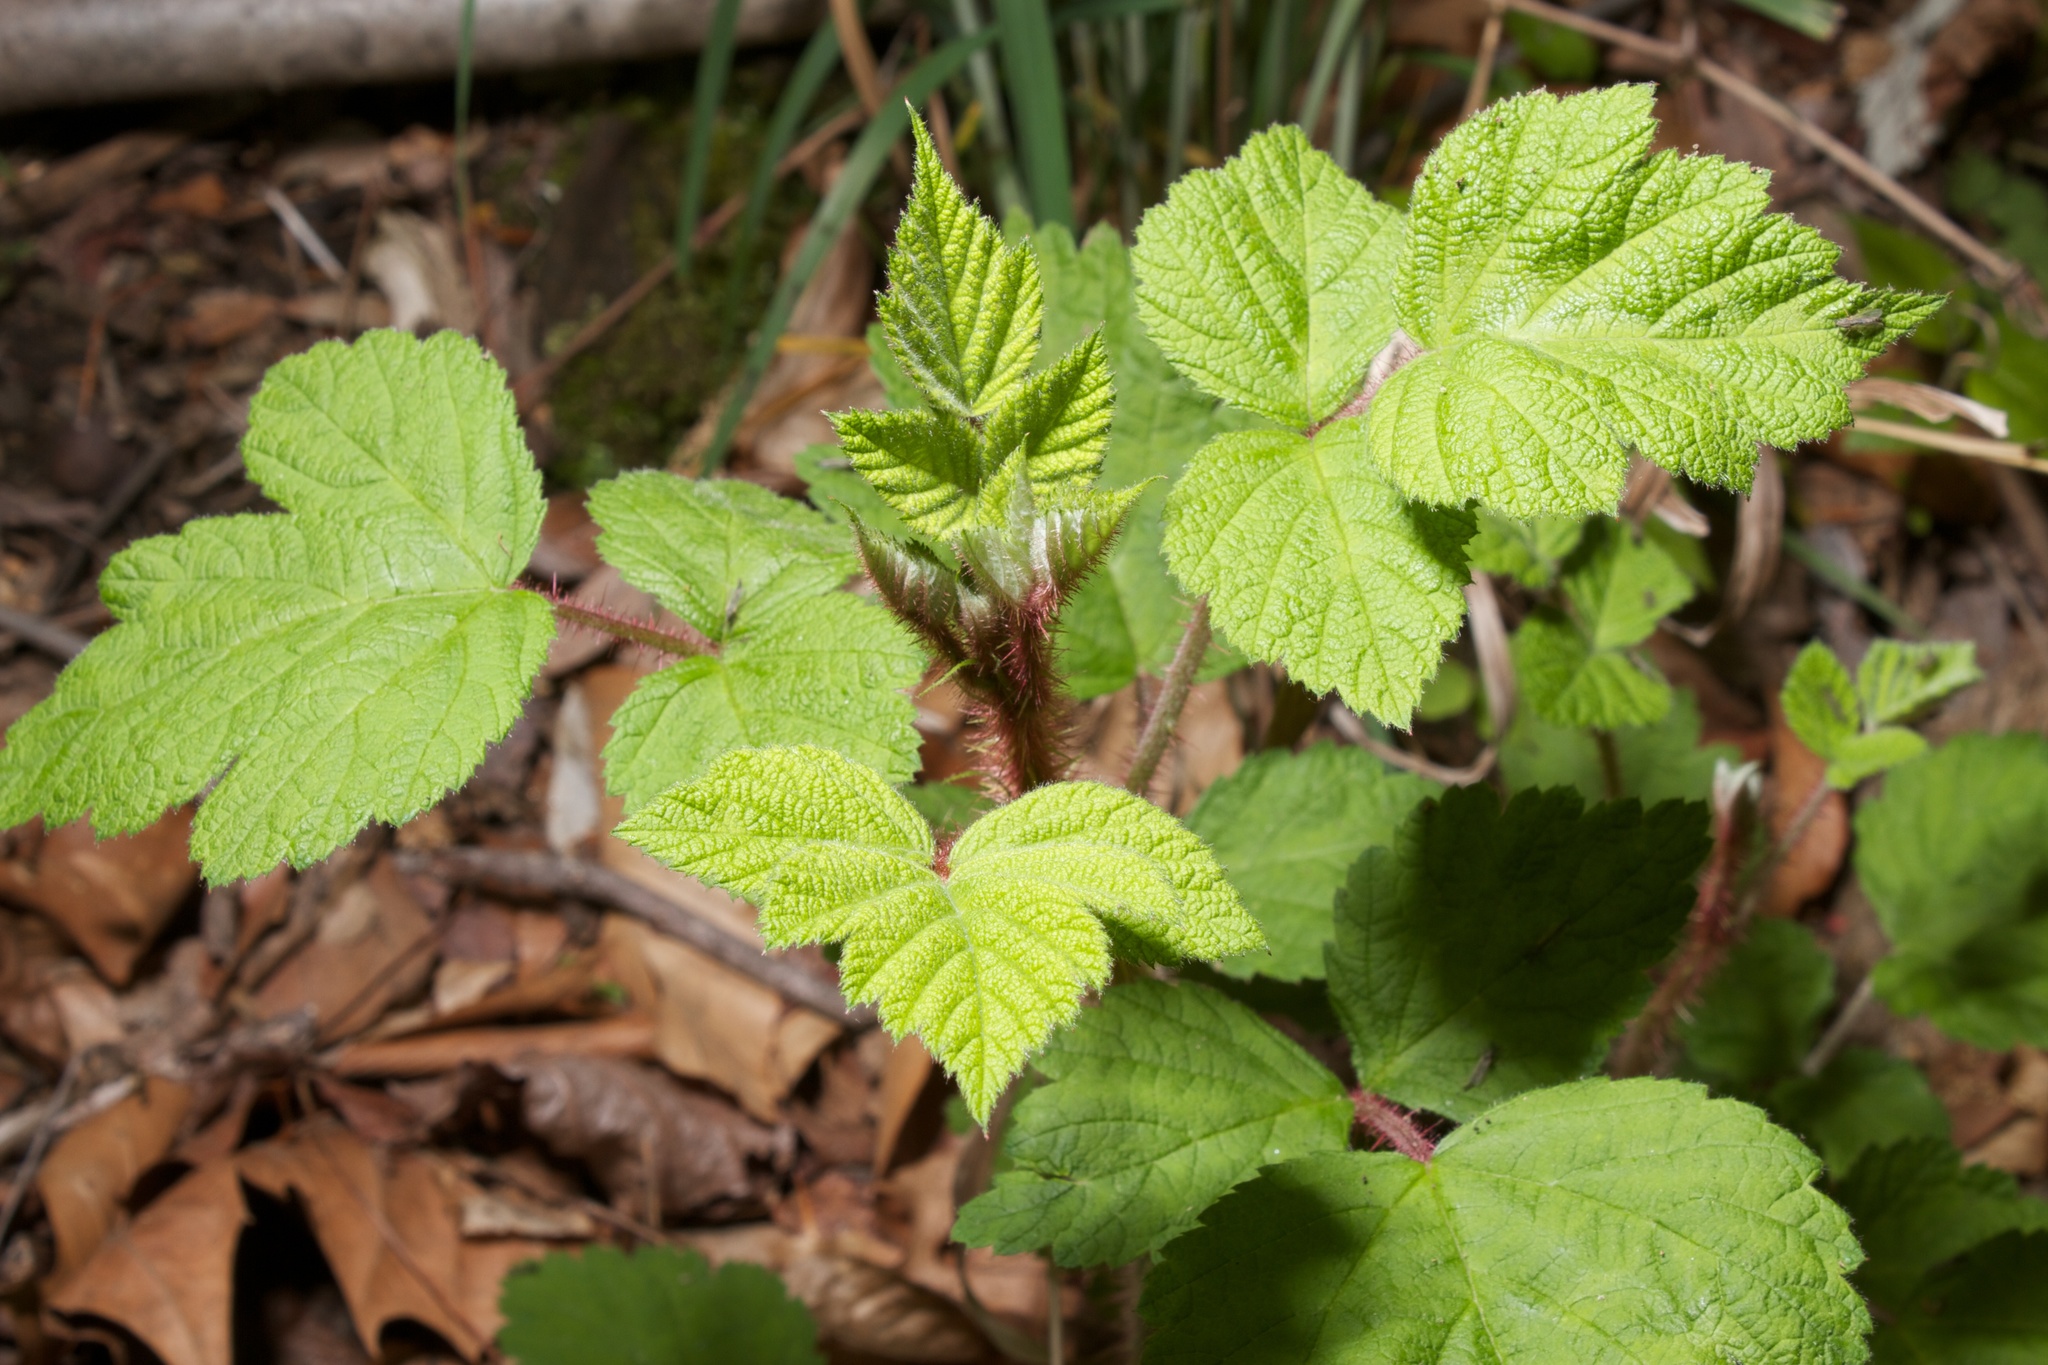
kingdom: Plantae
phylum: Tracheophyta
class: Magnoliopsida
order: Rosales
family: Rosaceae
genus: Rubus
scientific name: Rubus phoenicolasius
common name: Japanese wineberry
